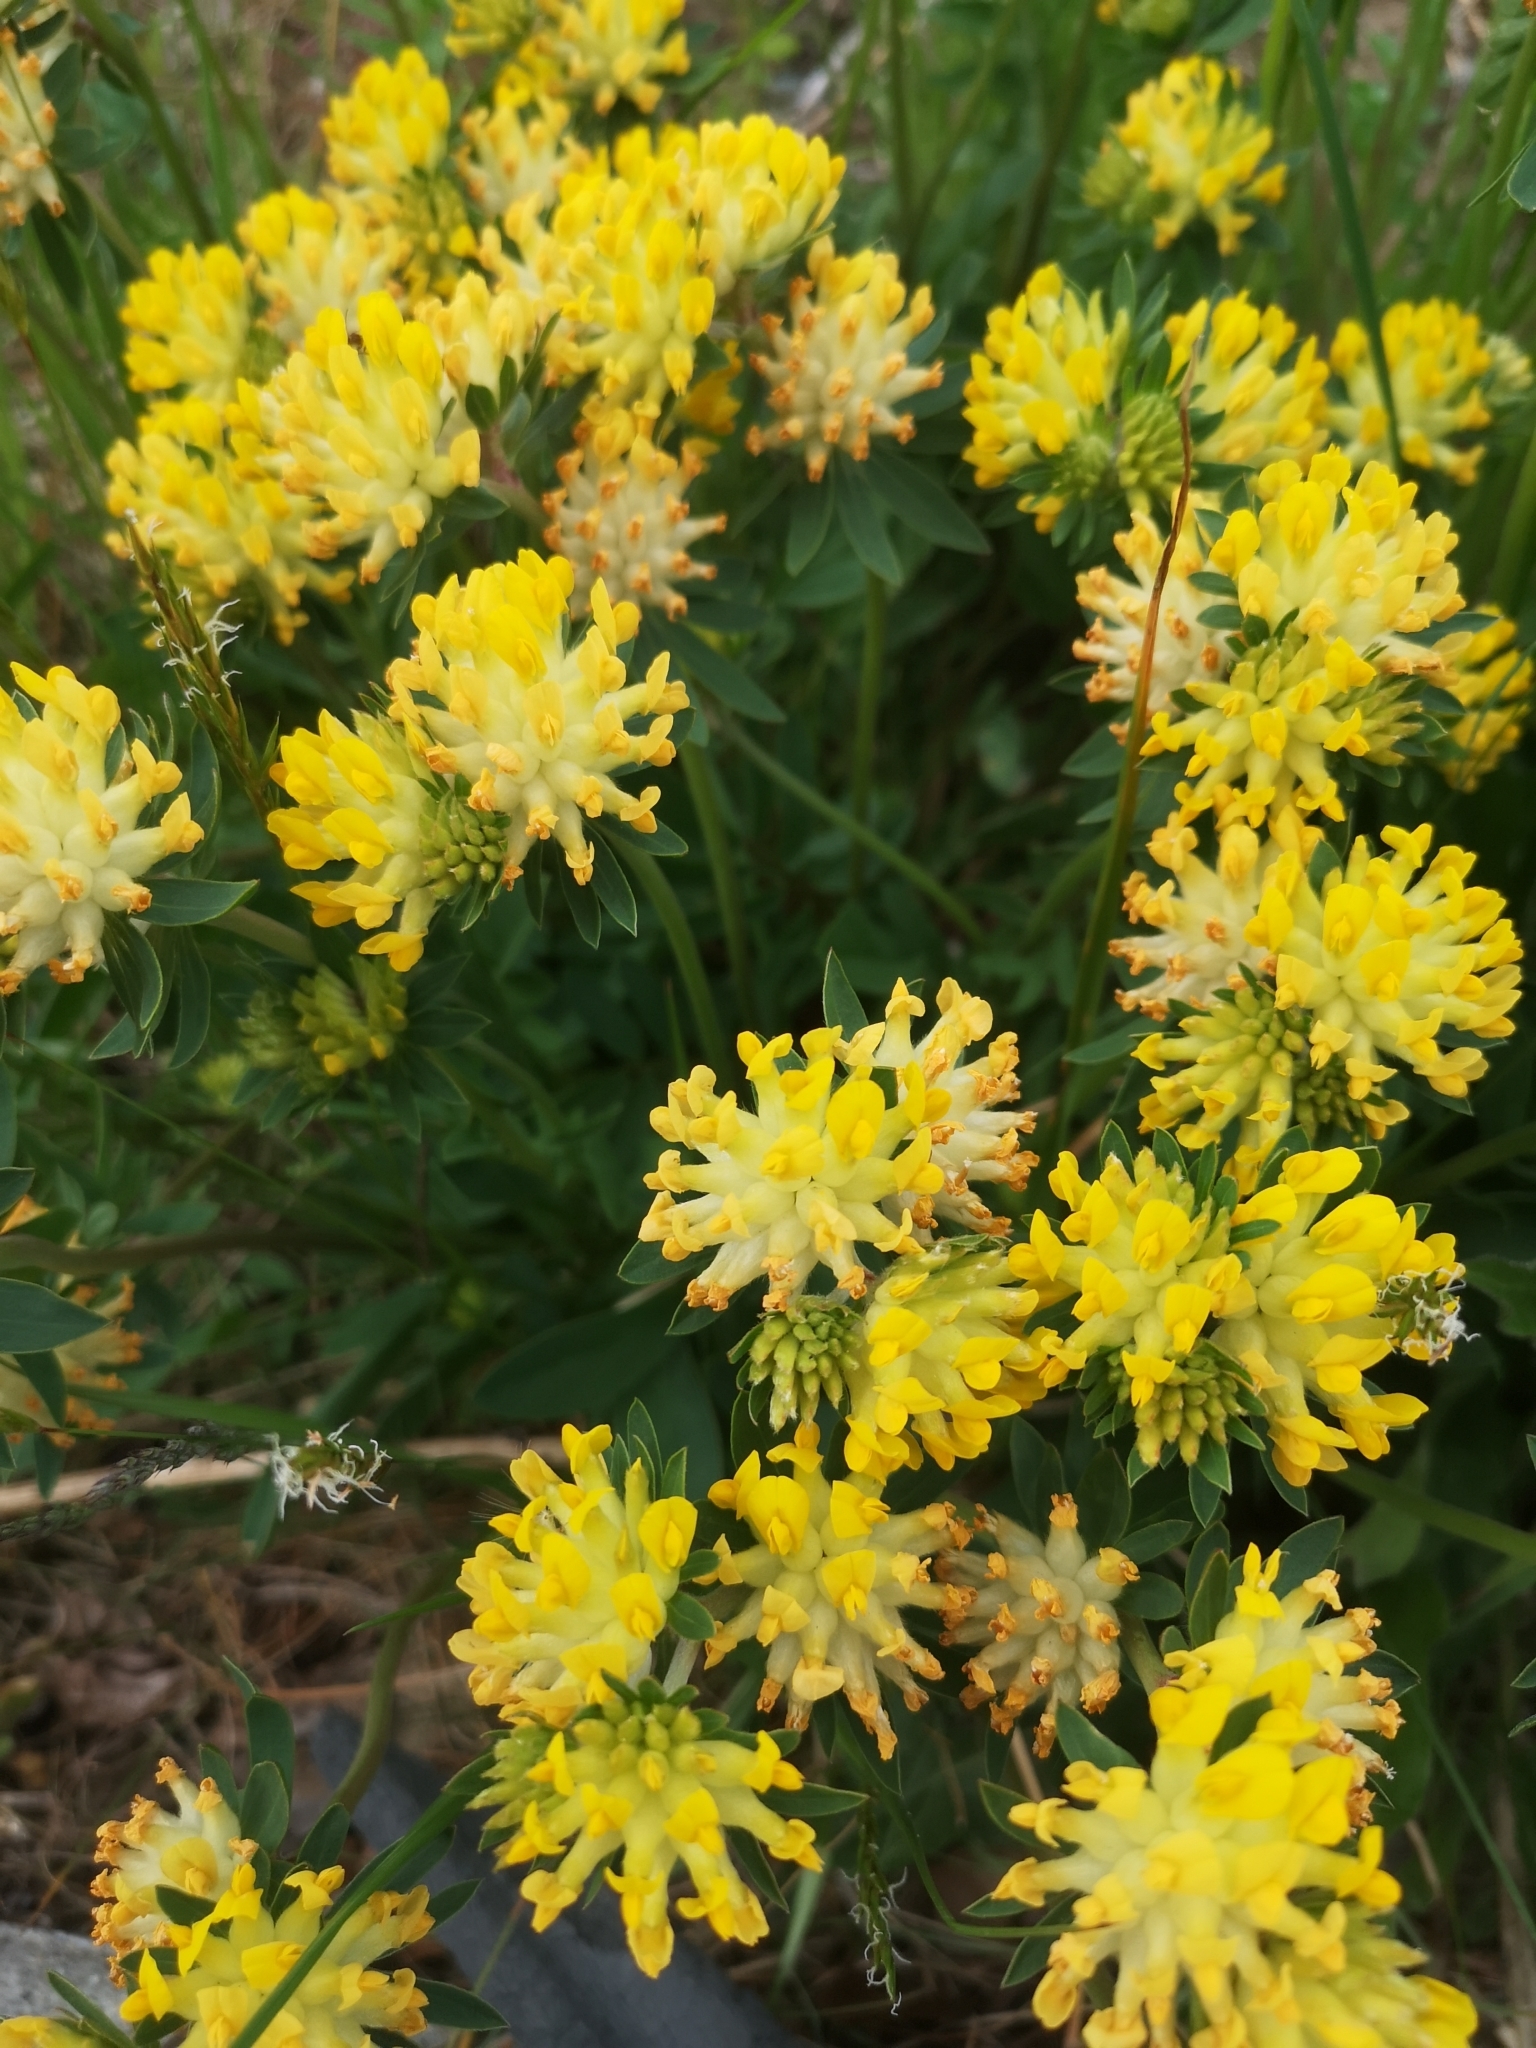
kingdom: Plantae
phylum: Tracheophyta
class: Magnoliopsida
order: Fabales
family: Fabaceae
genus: Anthyllis
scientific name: Anthyllis vulneraria
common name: Kidney vetch
